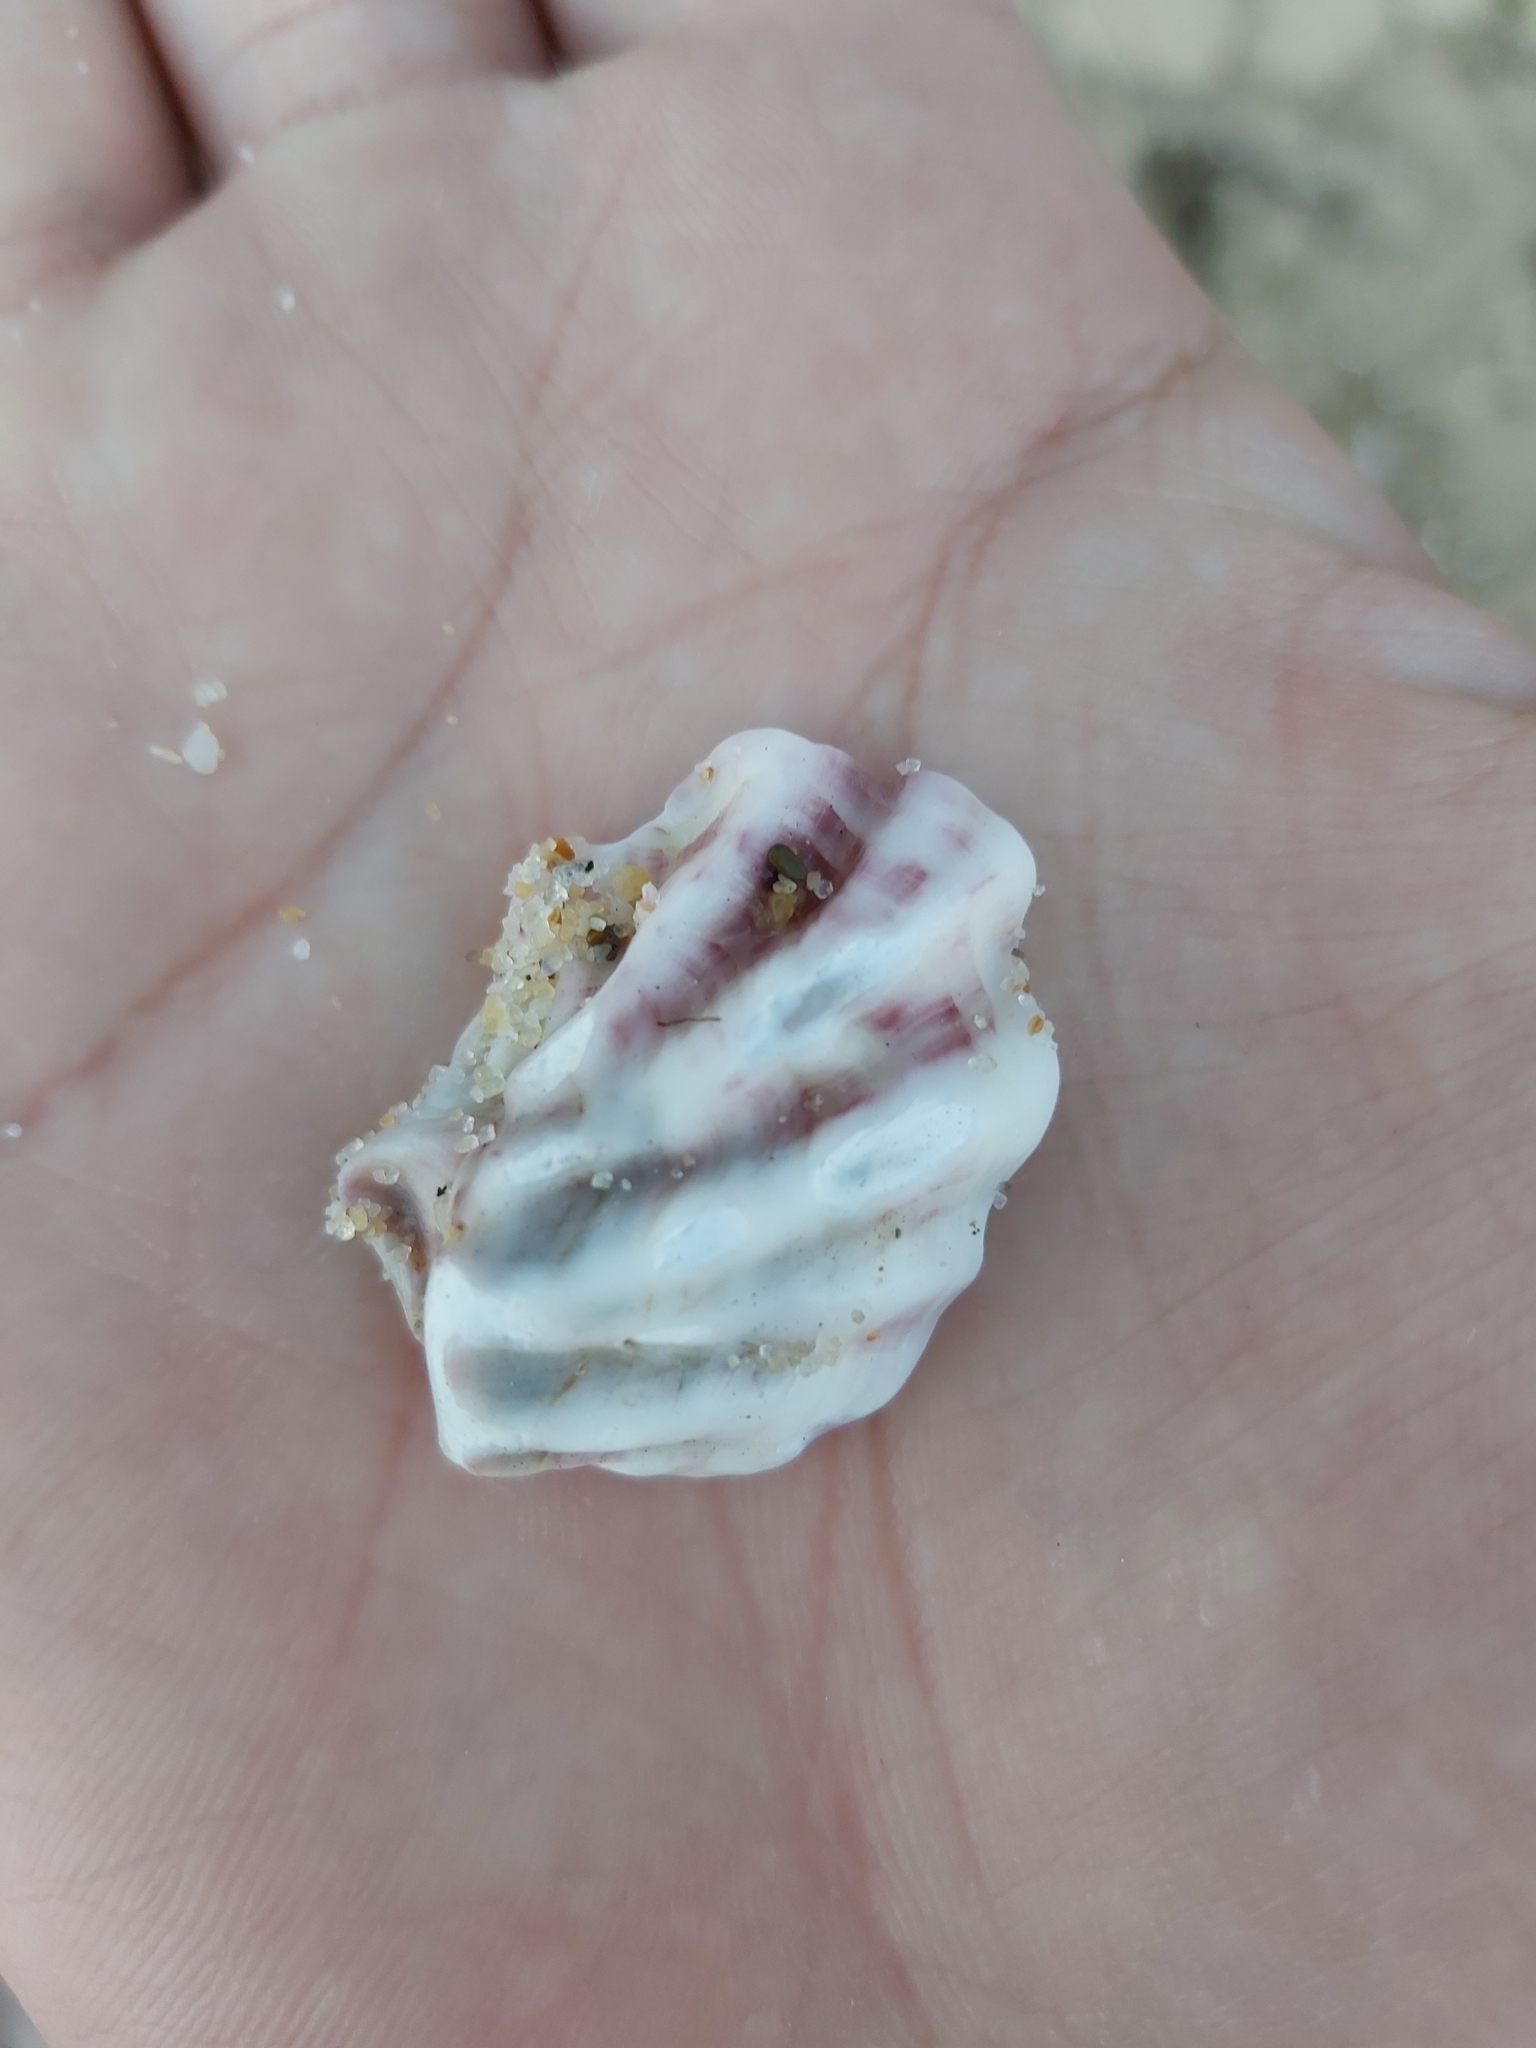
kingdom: Animalia
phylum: Mollusca
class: Bivalvia
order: Ostreida
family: Ostreidae
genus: Saccostrea
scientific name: Saccostrea glomerata
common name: Sydney cupped oyster
